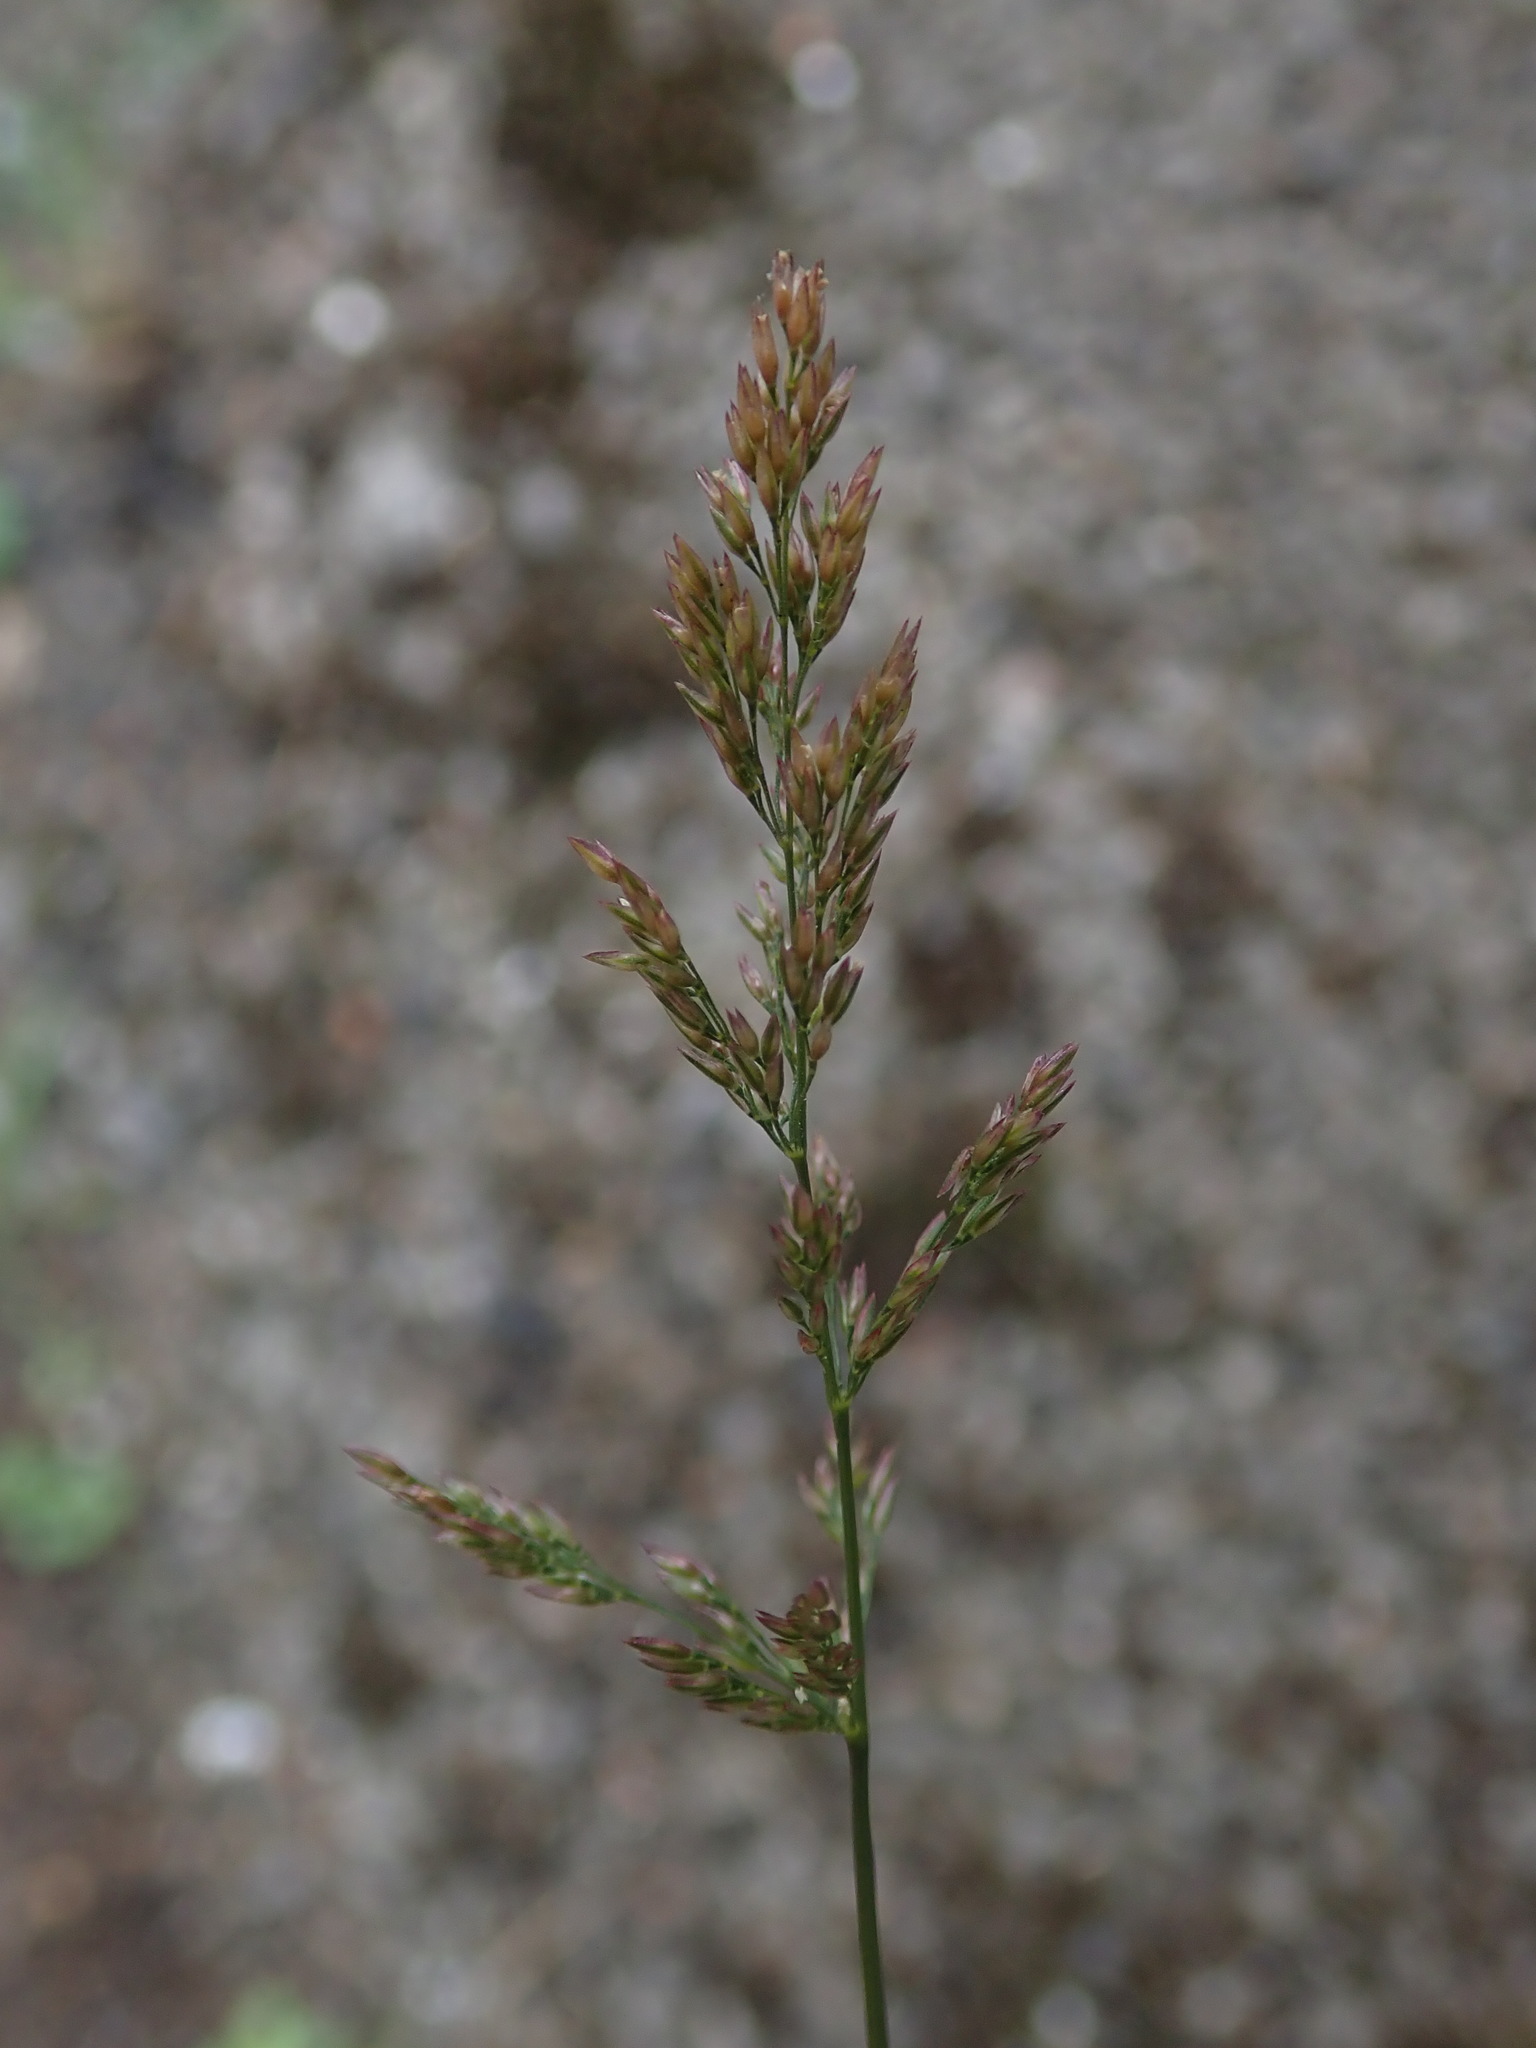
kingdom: Plantae
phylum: Tracheophyta
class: Liliopsida
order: Poales
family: Poaceae
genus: Polypogon
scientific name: Polypogon viridis
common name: Water bent
